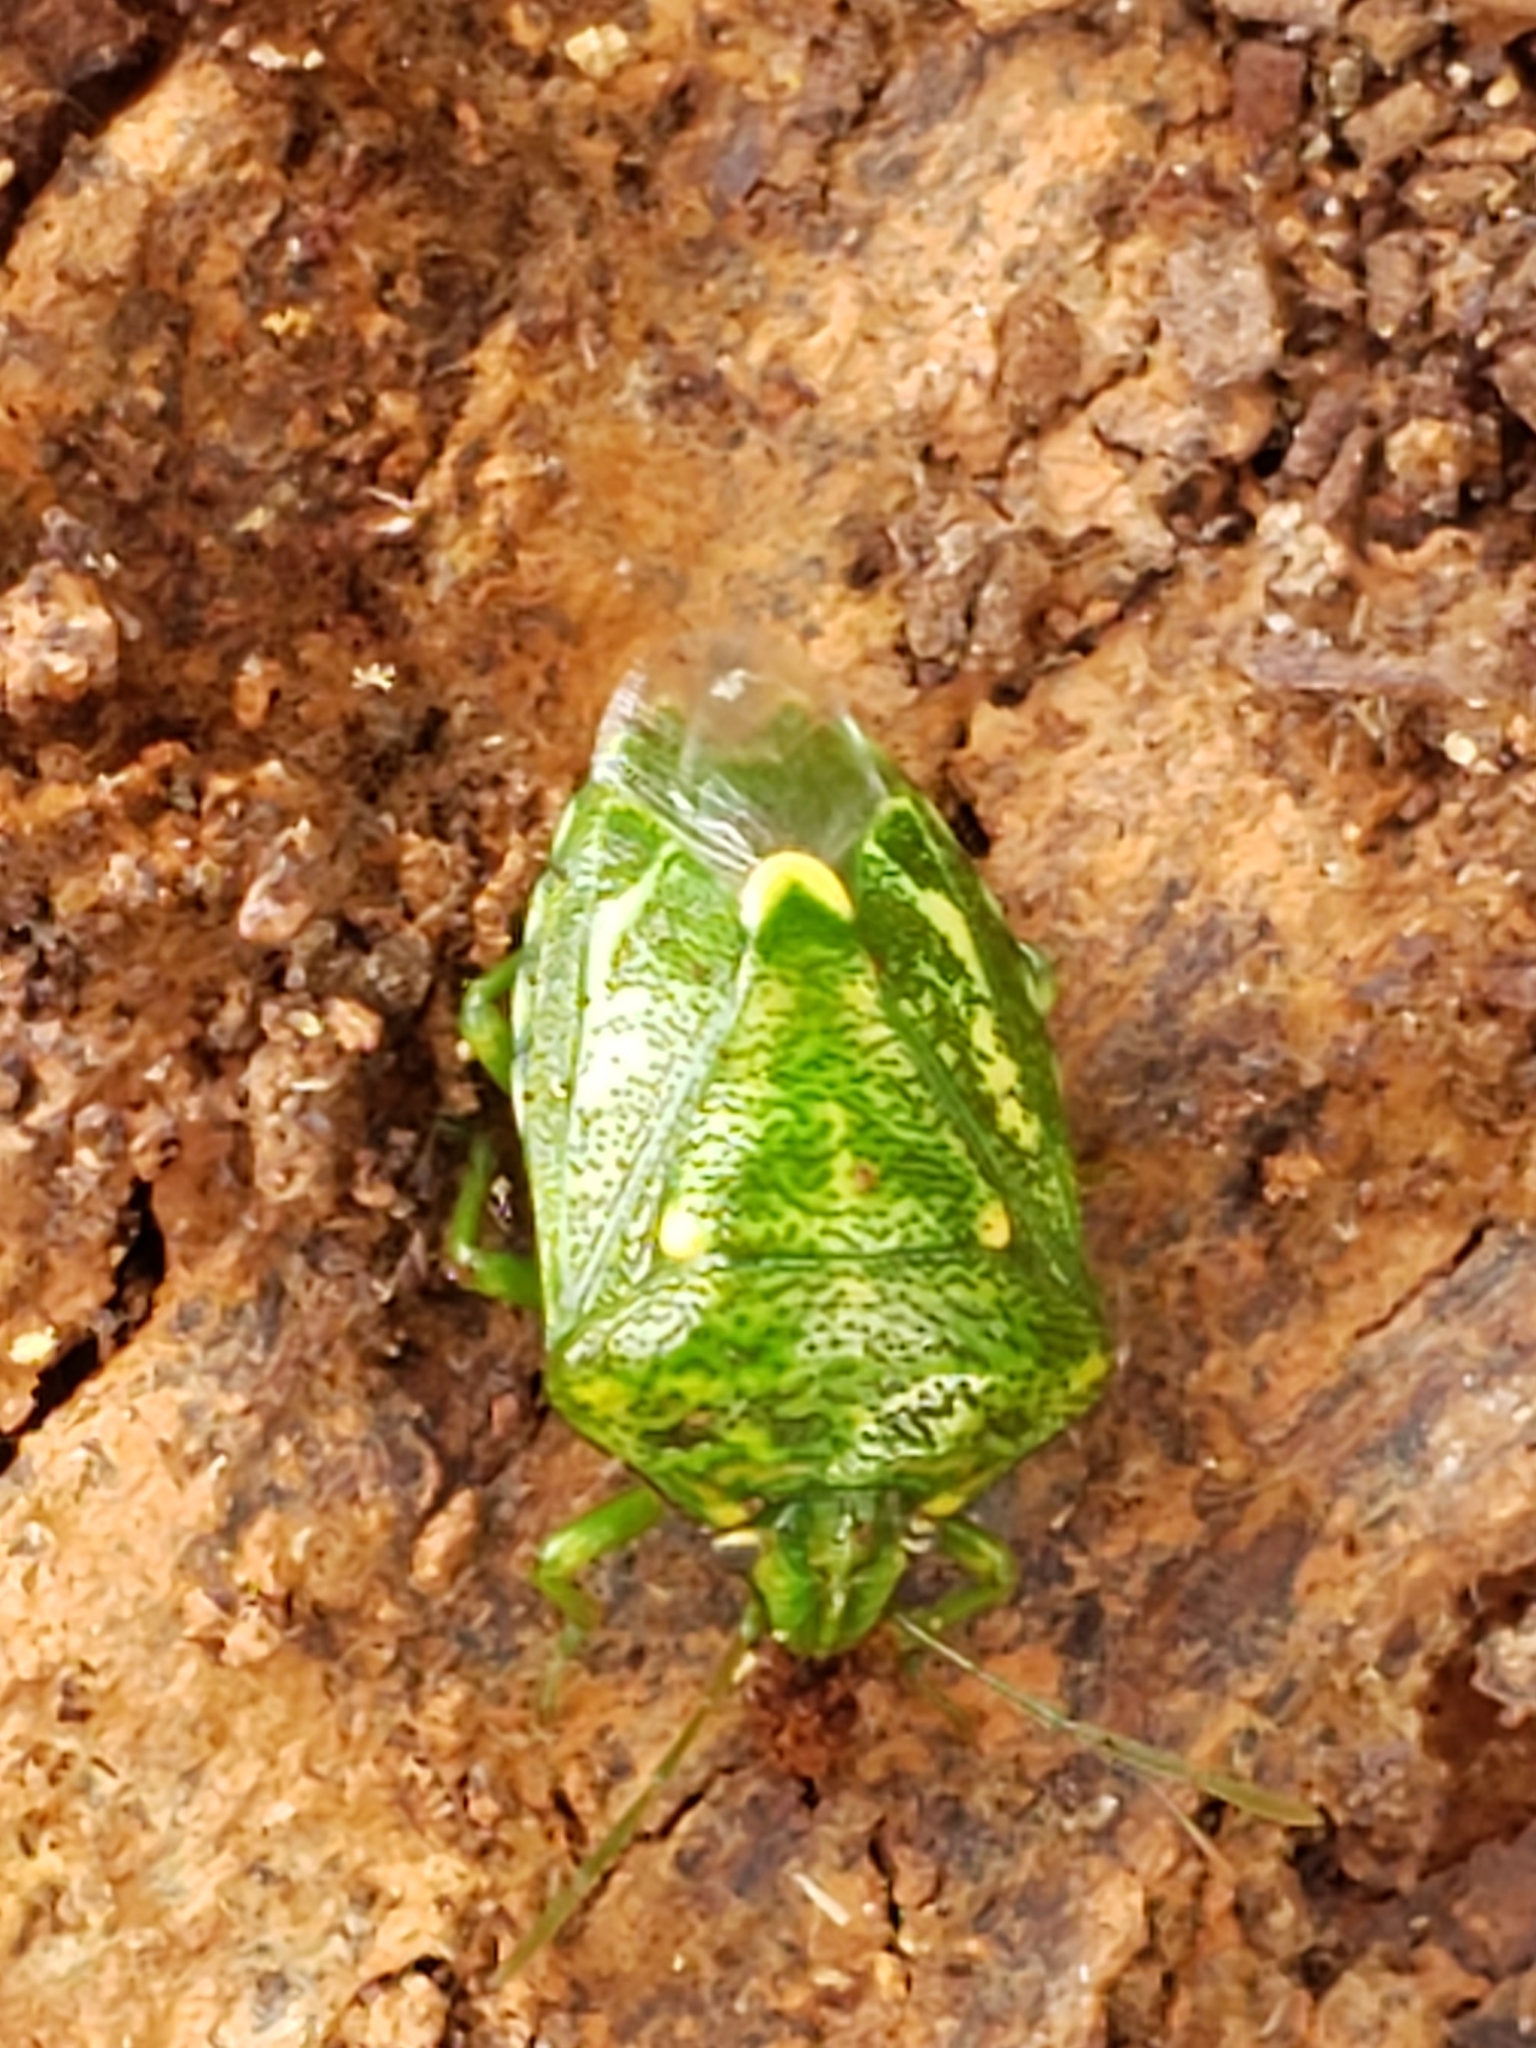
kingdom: Animalia
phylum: Arthropoda
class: Insecta
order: Hemiptera
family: Pentatomidae
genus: Banasa
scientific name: Banasa euchlora
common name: Cedar berry bug
